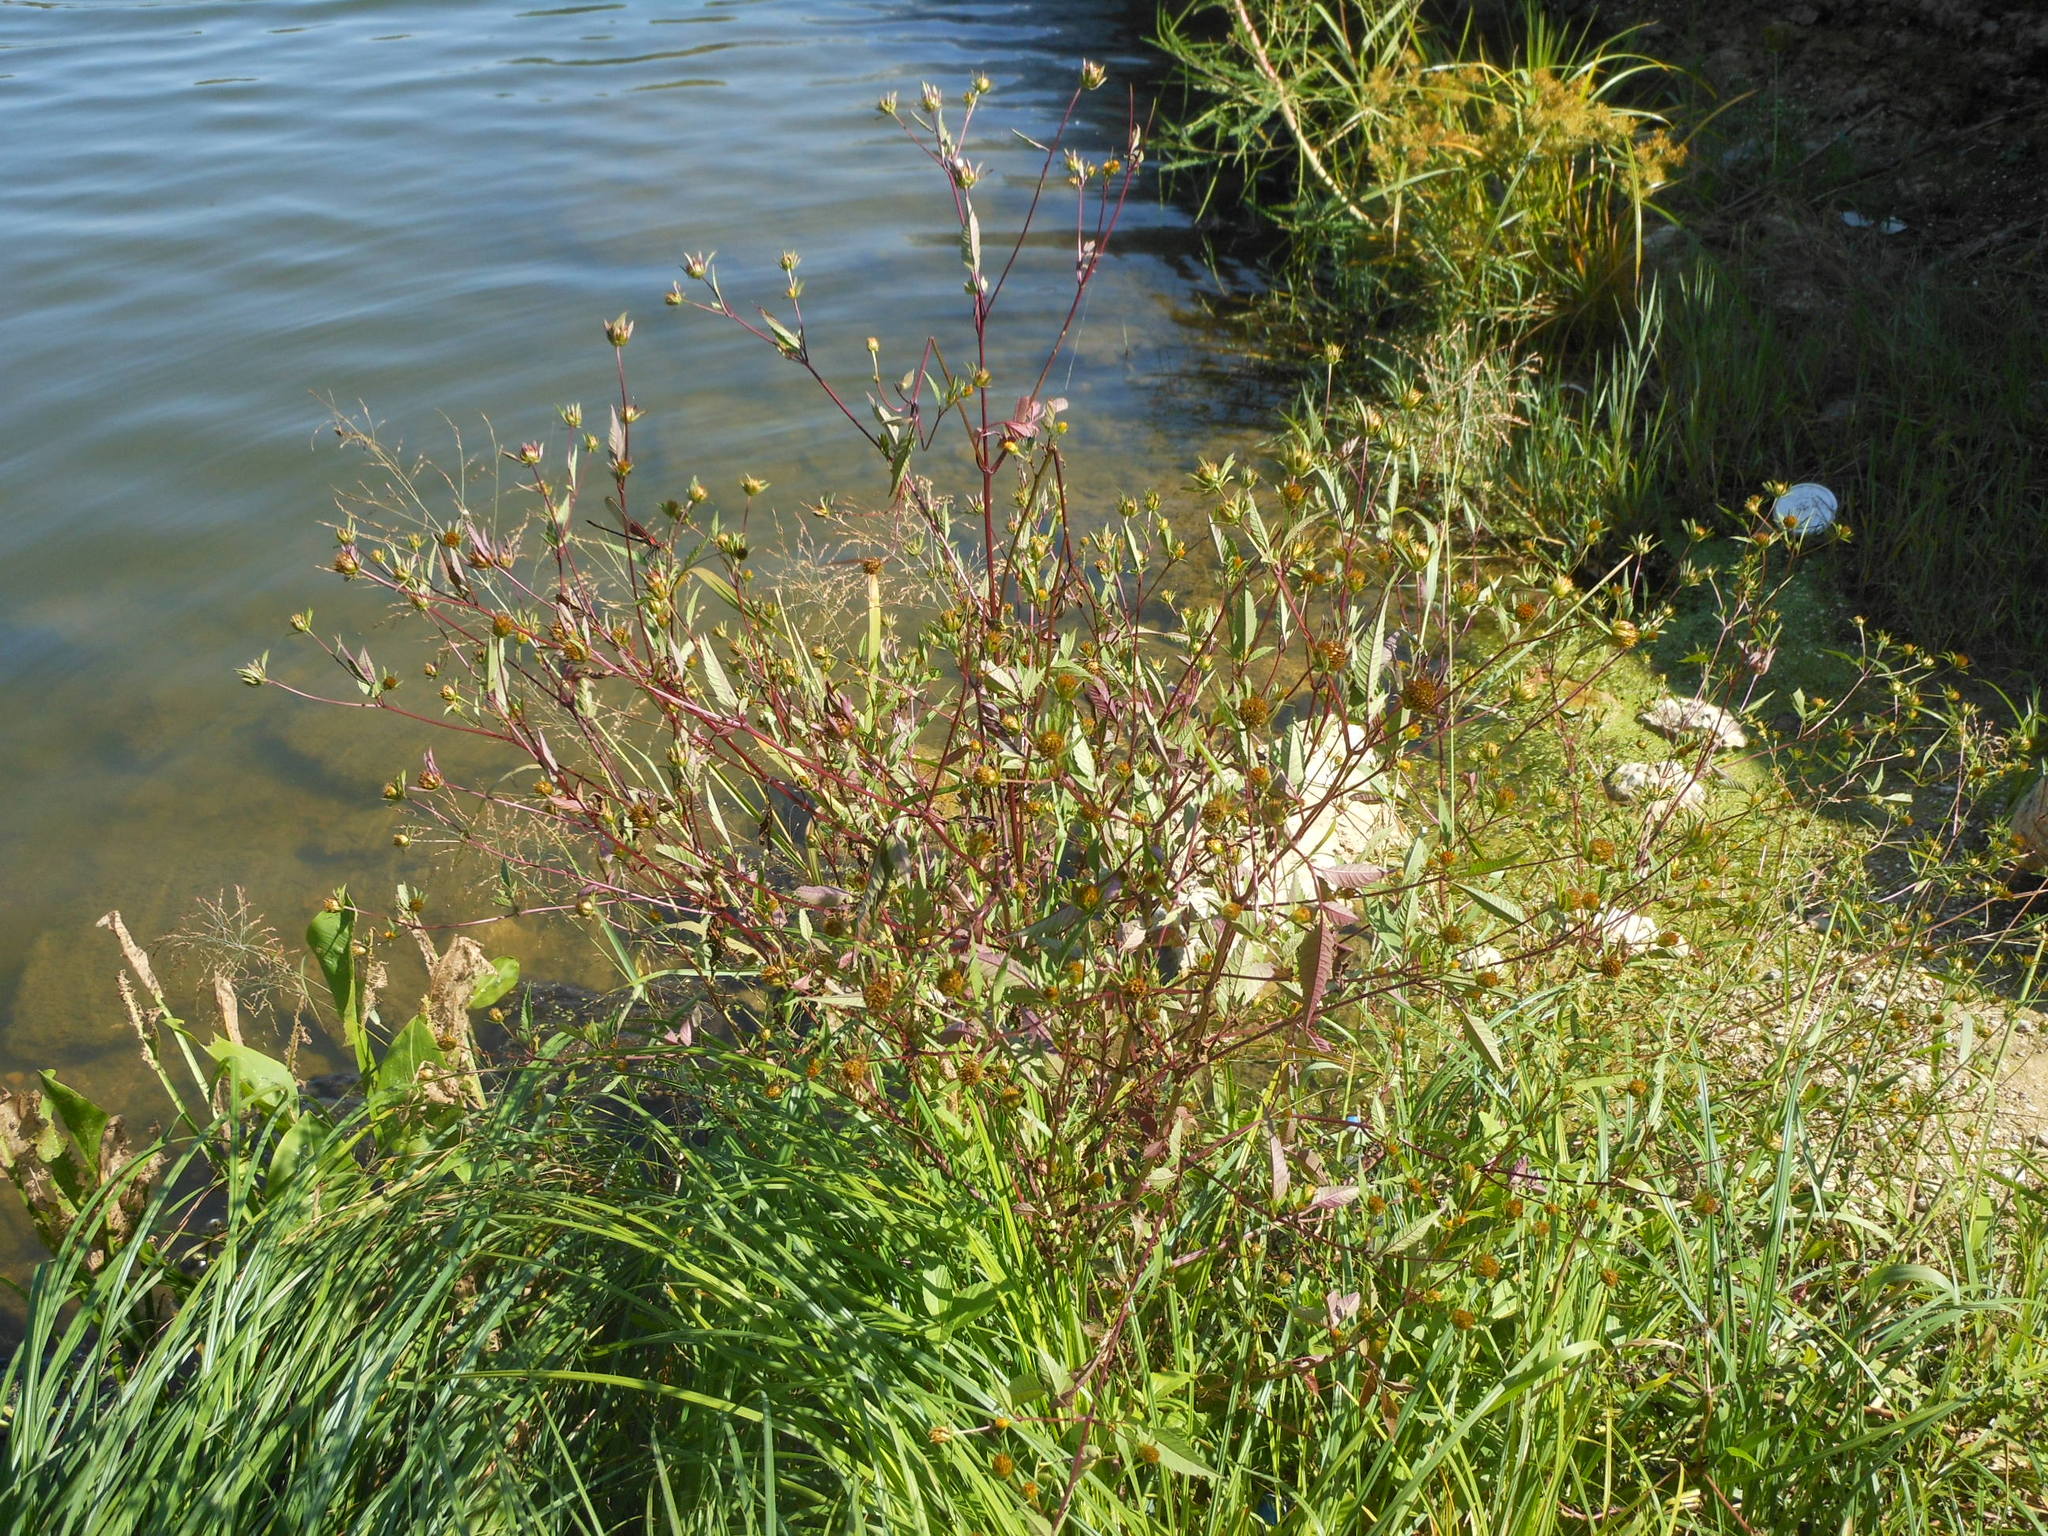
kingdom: Plantae
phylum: Tracheophyta
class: Magnoliopsida
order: Asterales
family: Asteraceae
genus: Bidens
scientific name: Bidens frondosa
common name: Beggarticks
